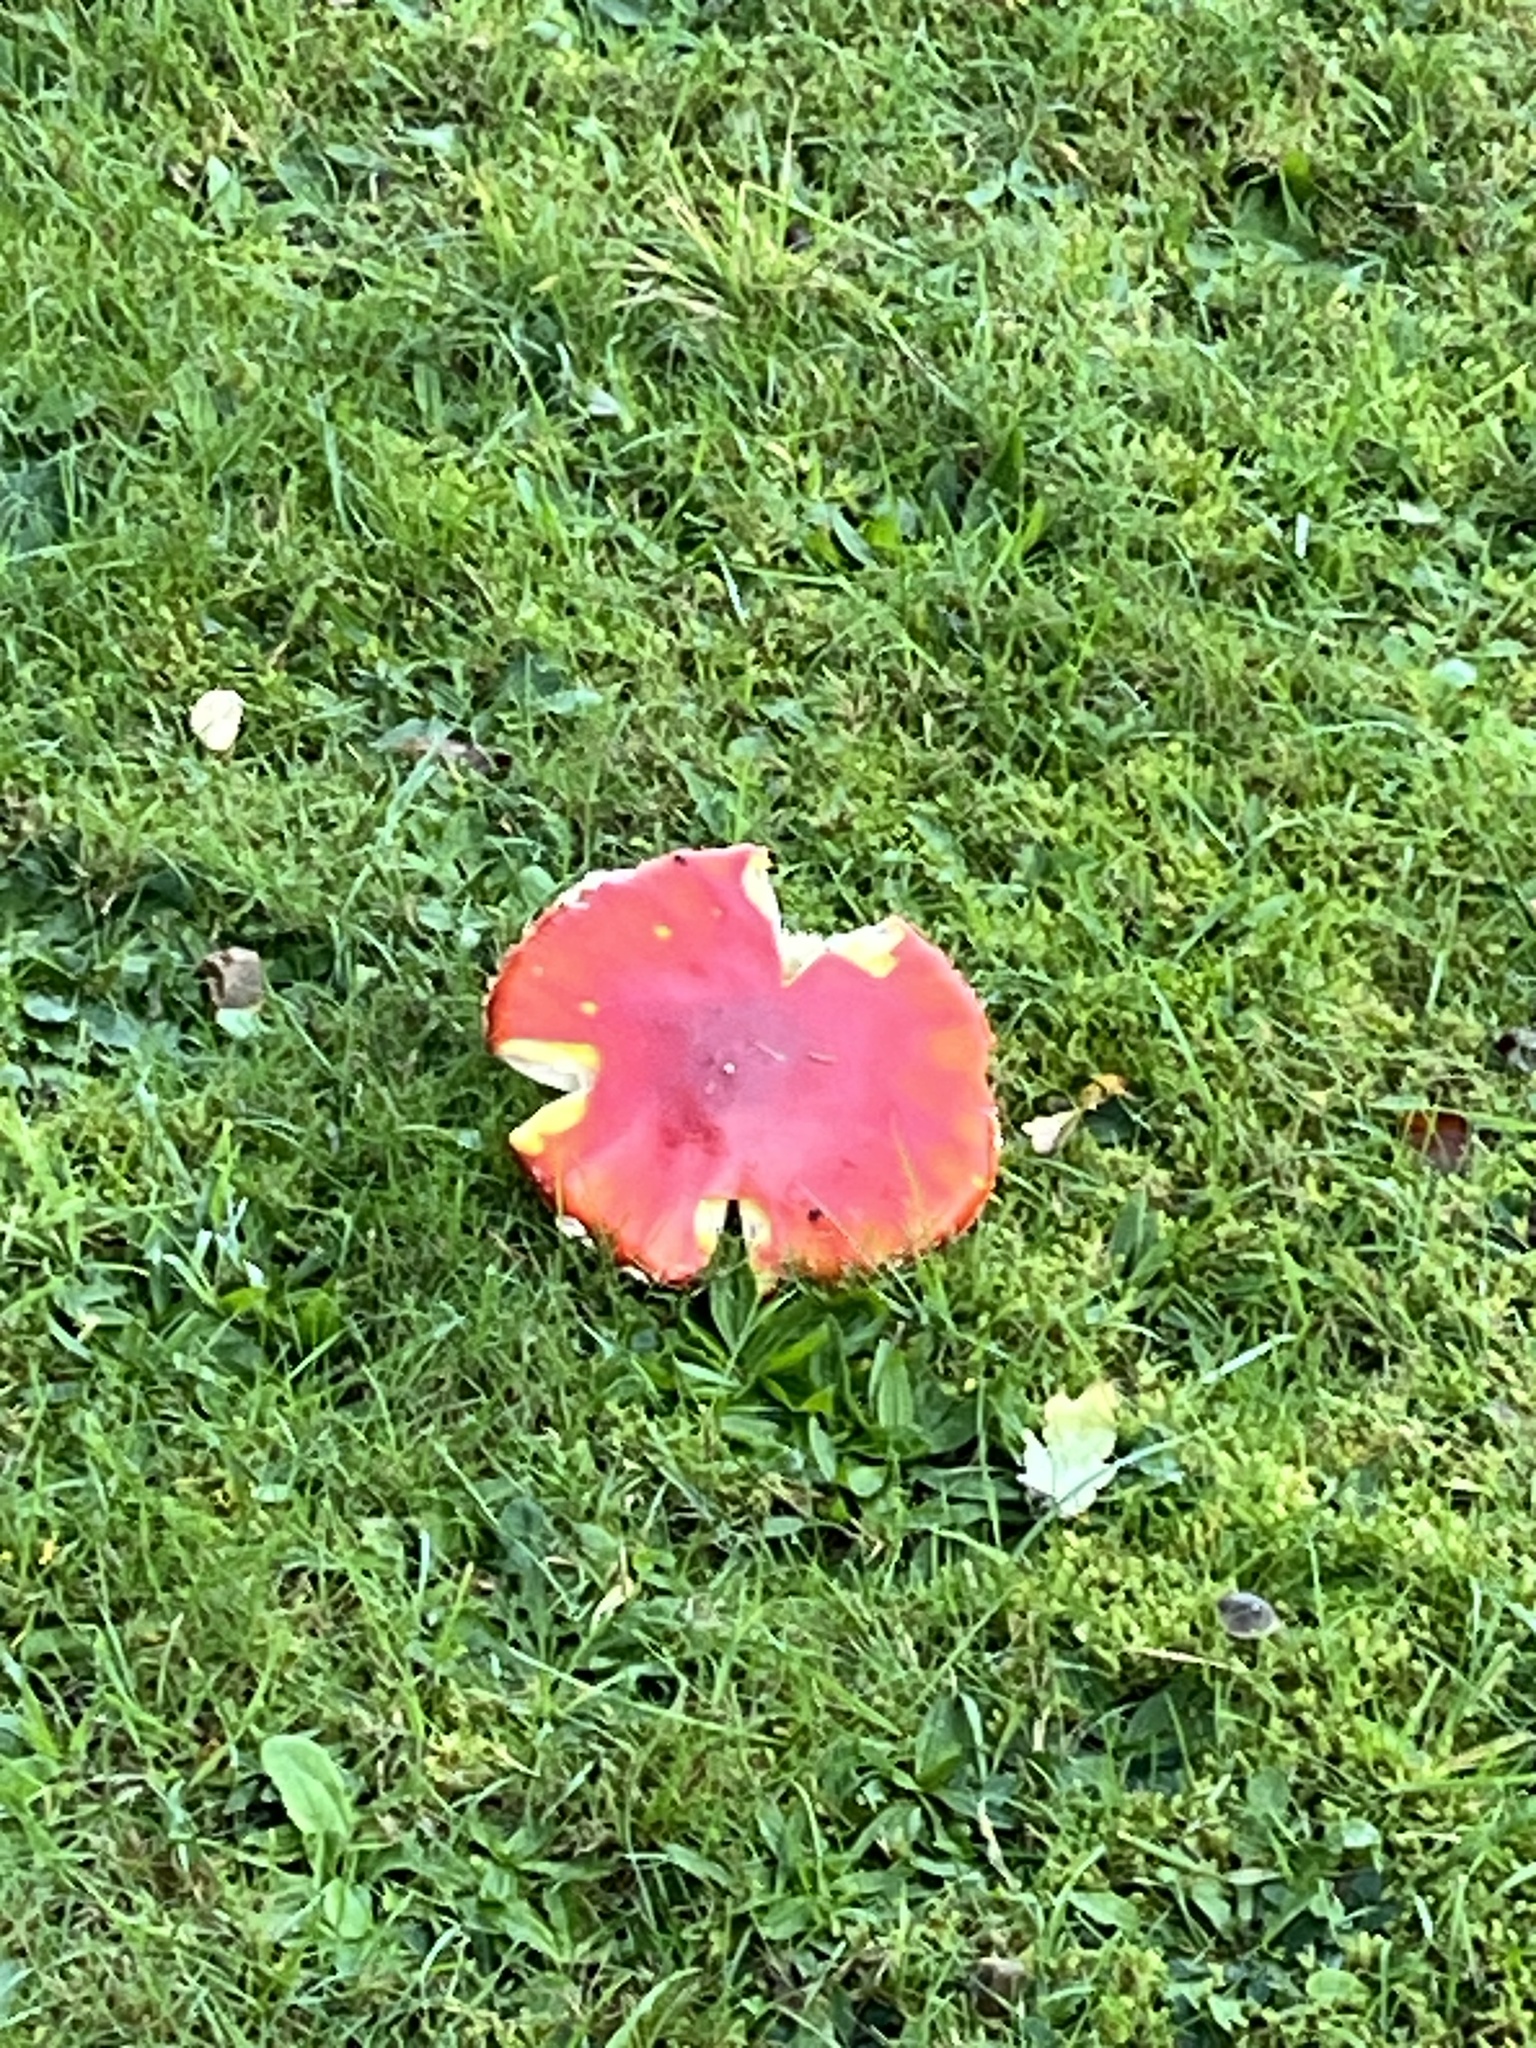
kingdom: Fungi
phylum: Basidiomycota
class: Agaricomycetes
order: Agaricales
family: Amanitaceae
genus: Amanita
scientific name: Amanita muscaria
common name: Fly agaric
